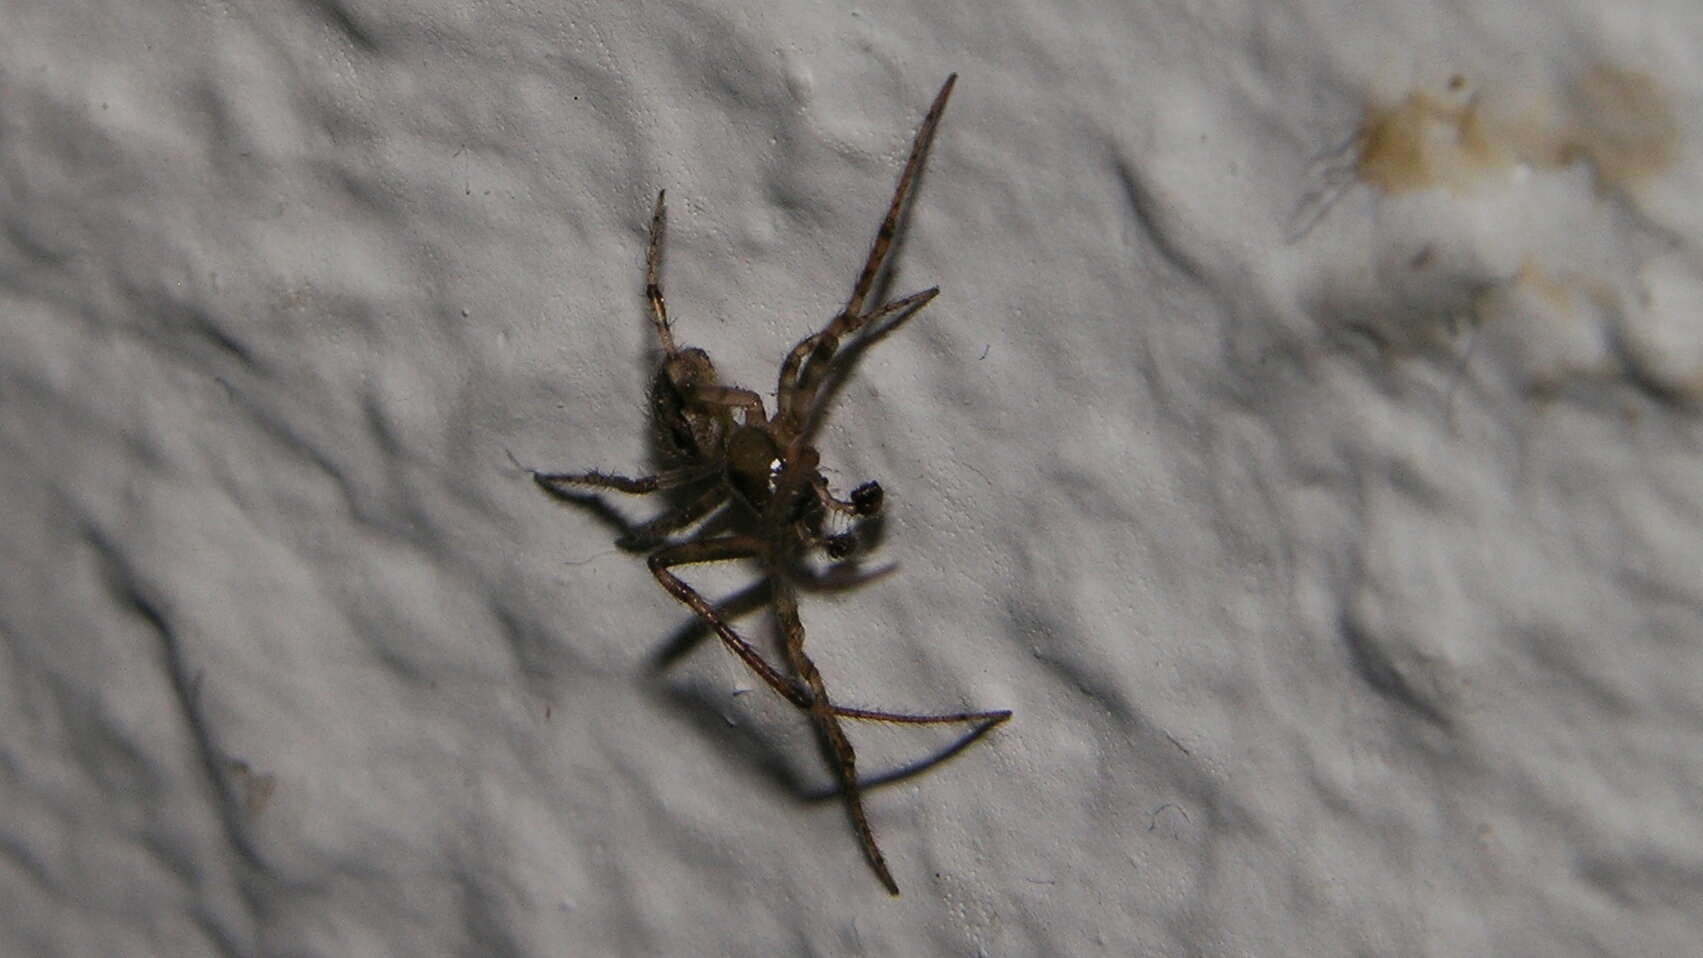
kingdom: Animalia
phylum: Arthropoda
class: Arachnida
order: Araneae
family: Araneidae
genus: Zygiella
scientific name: Zygiella x-notata
